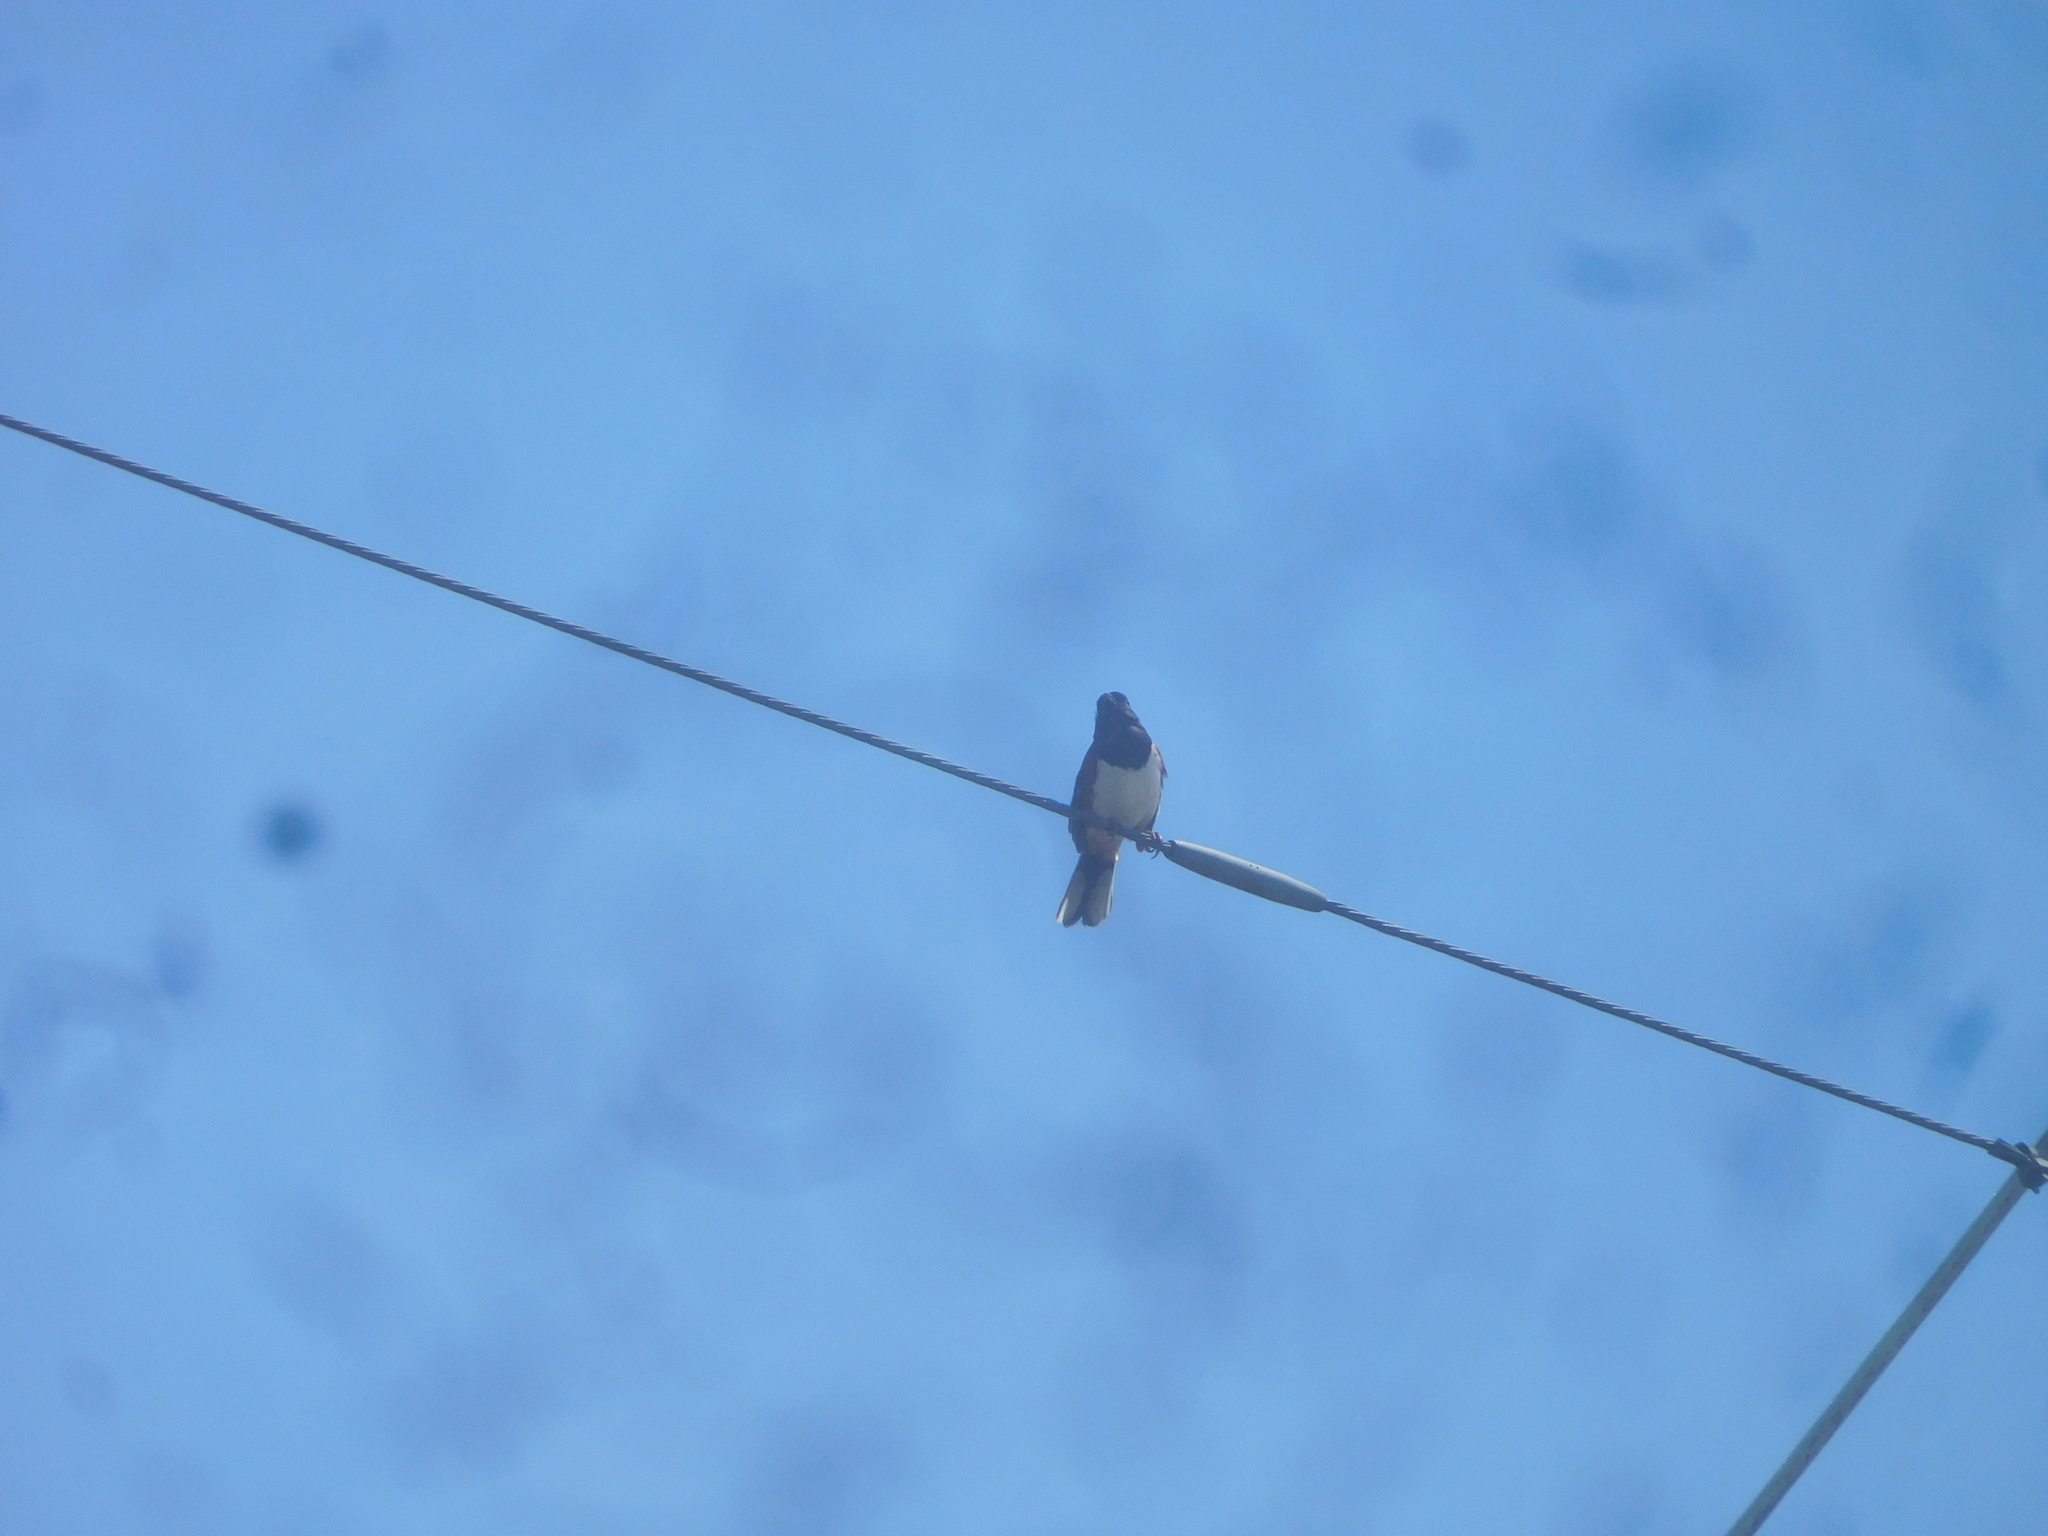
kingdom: Animalia
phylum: Chordata
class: Aves
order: Passeriformes
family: Passerellidae
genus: Pipilo
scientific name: Pipilo erythrophthalmus
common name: Eastern towhee
